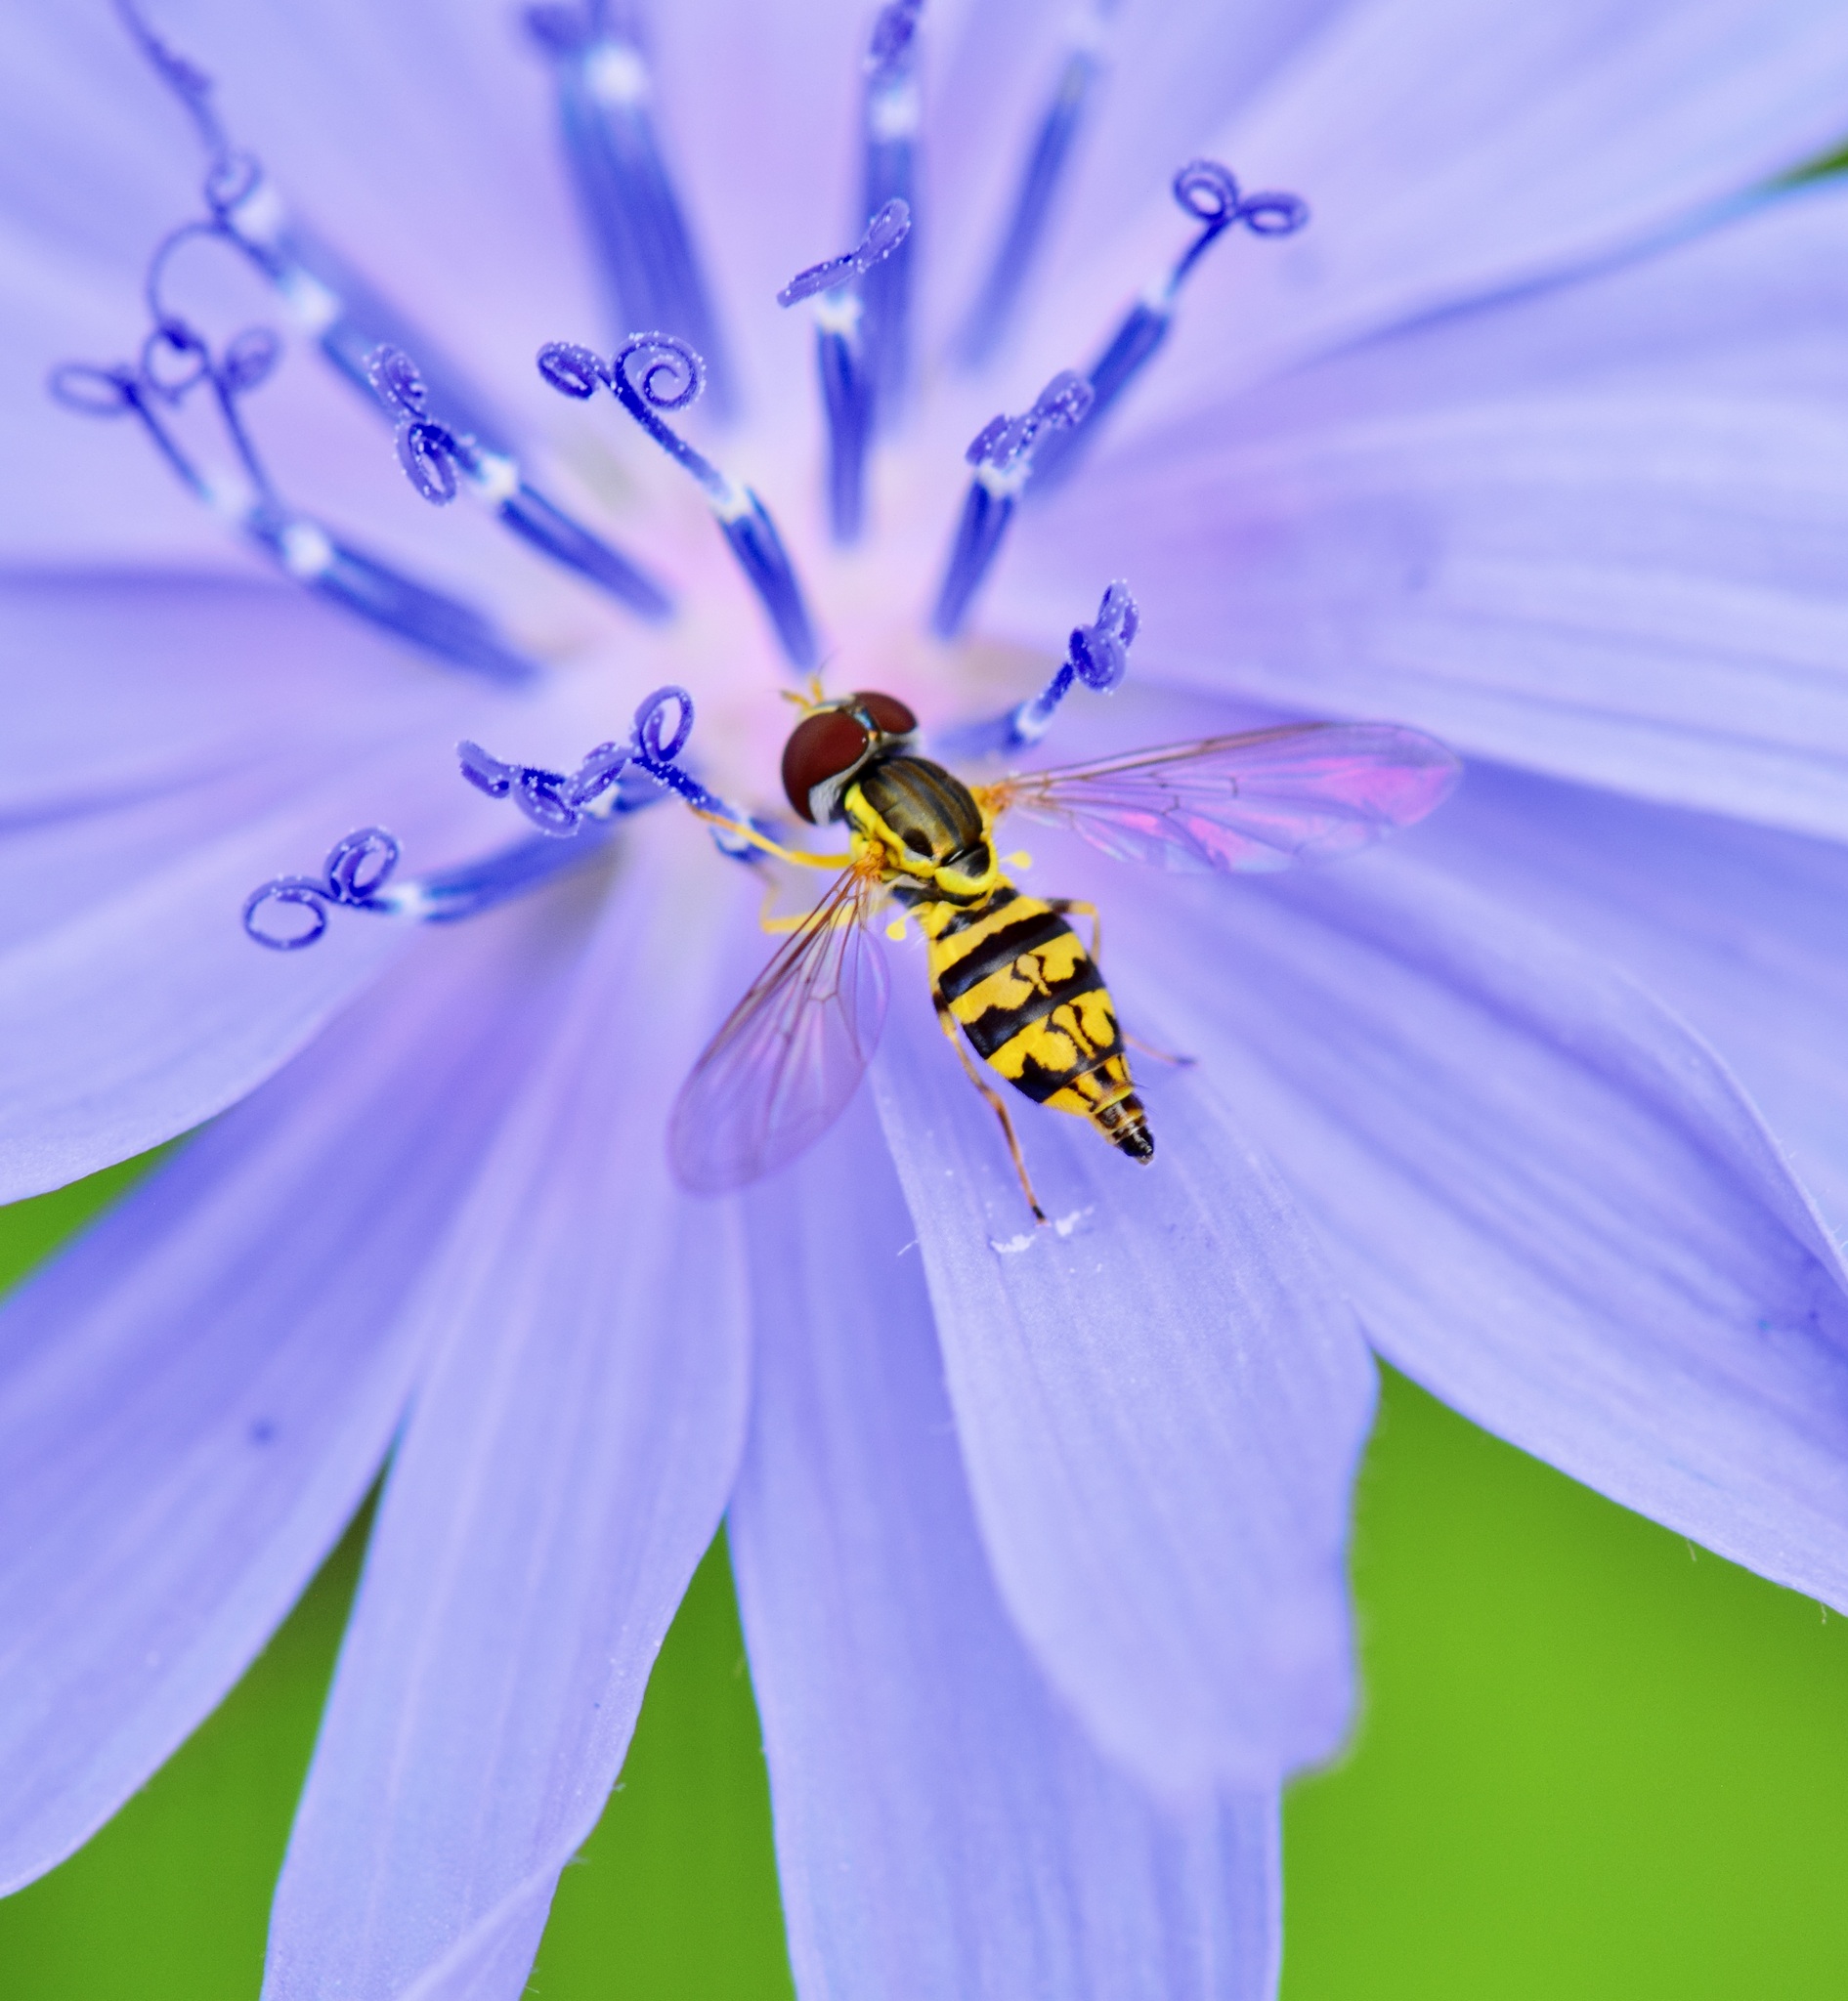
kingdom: Animalia
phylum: Arthropoda
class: Insecta
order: Diptera
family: Syrphidae
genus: Toxomerus
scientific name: Toxomerus geminatus
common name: Eastern calligrapher
